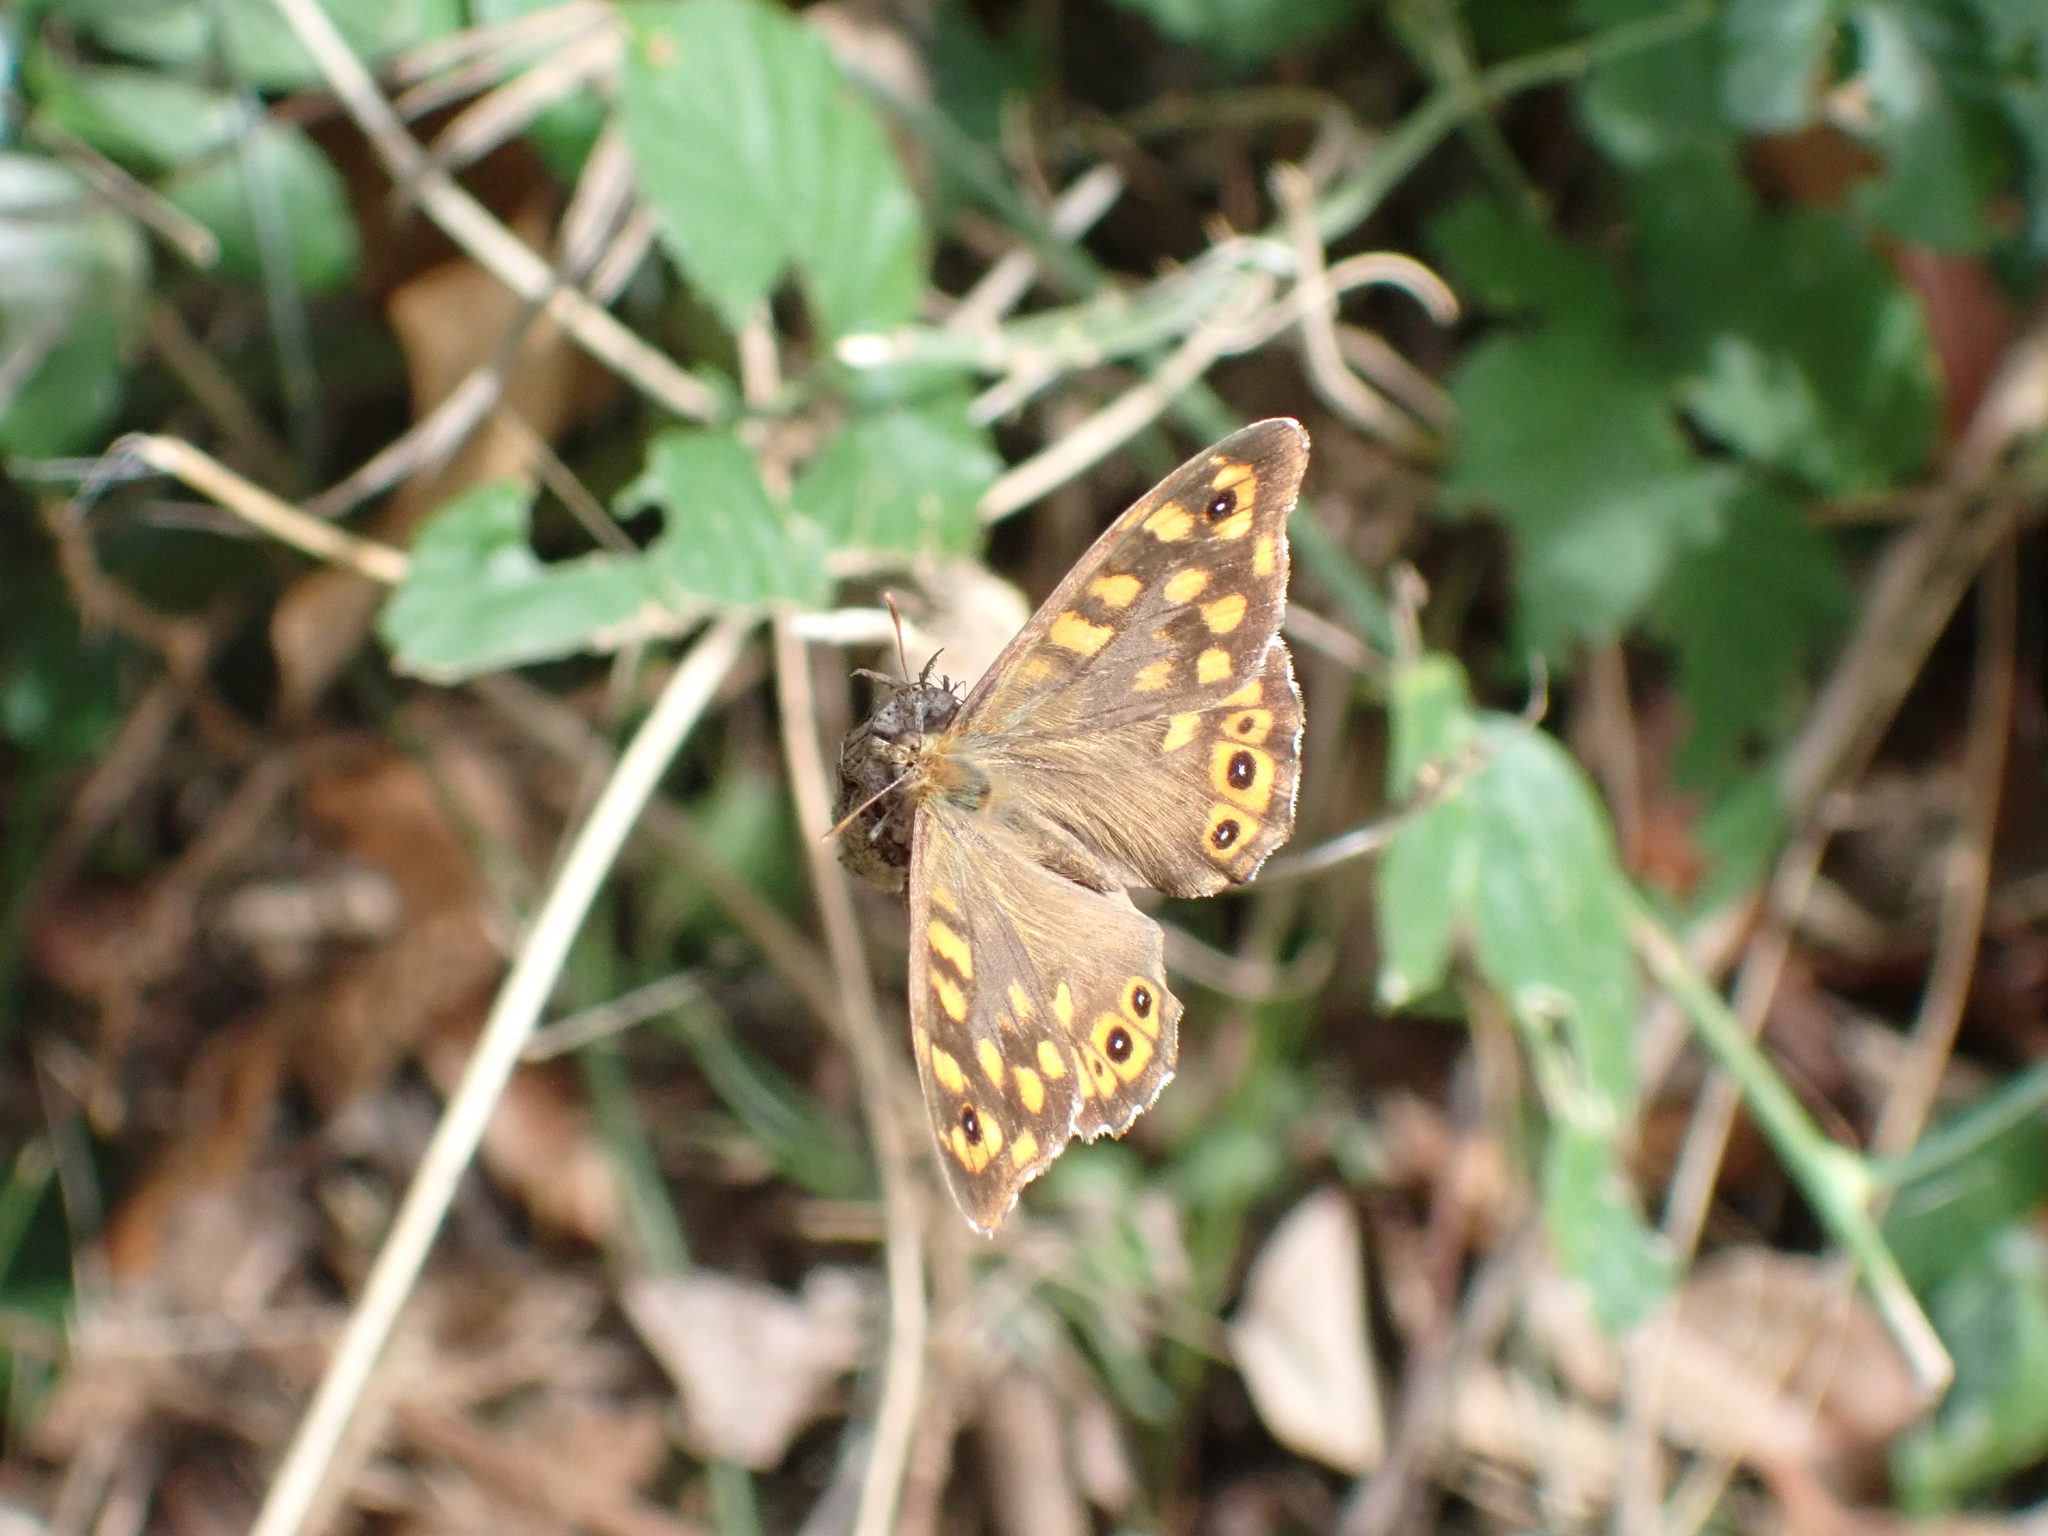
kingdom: Animalia
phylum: Arthropoda
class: Insecta
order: Lepidoptera
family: Nymphalidae
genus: Pararge
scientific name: Pararge aegeria
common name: Speckled wood
